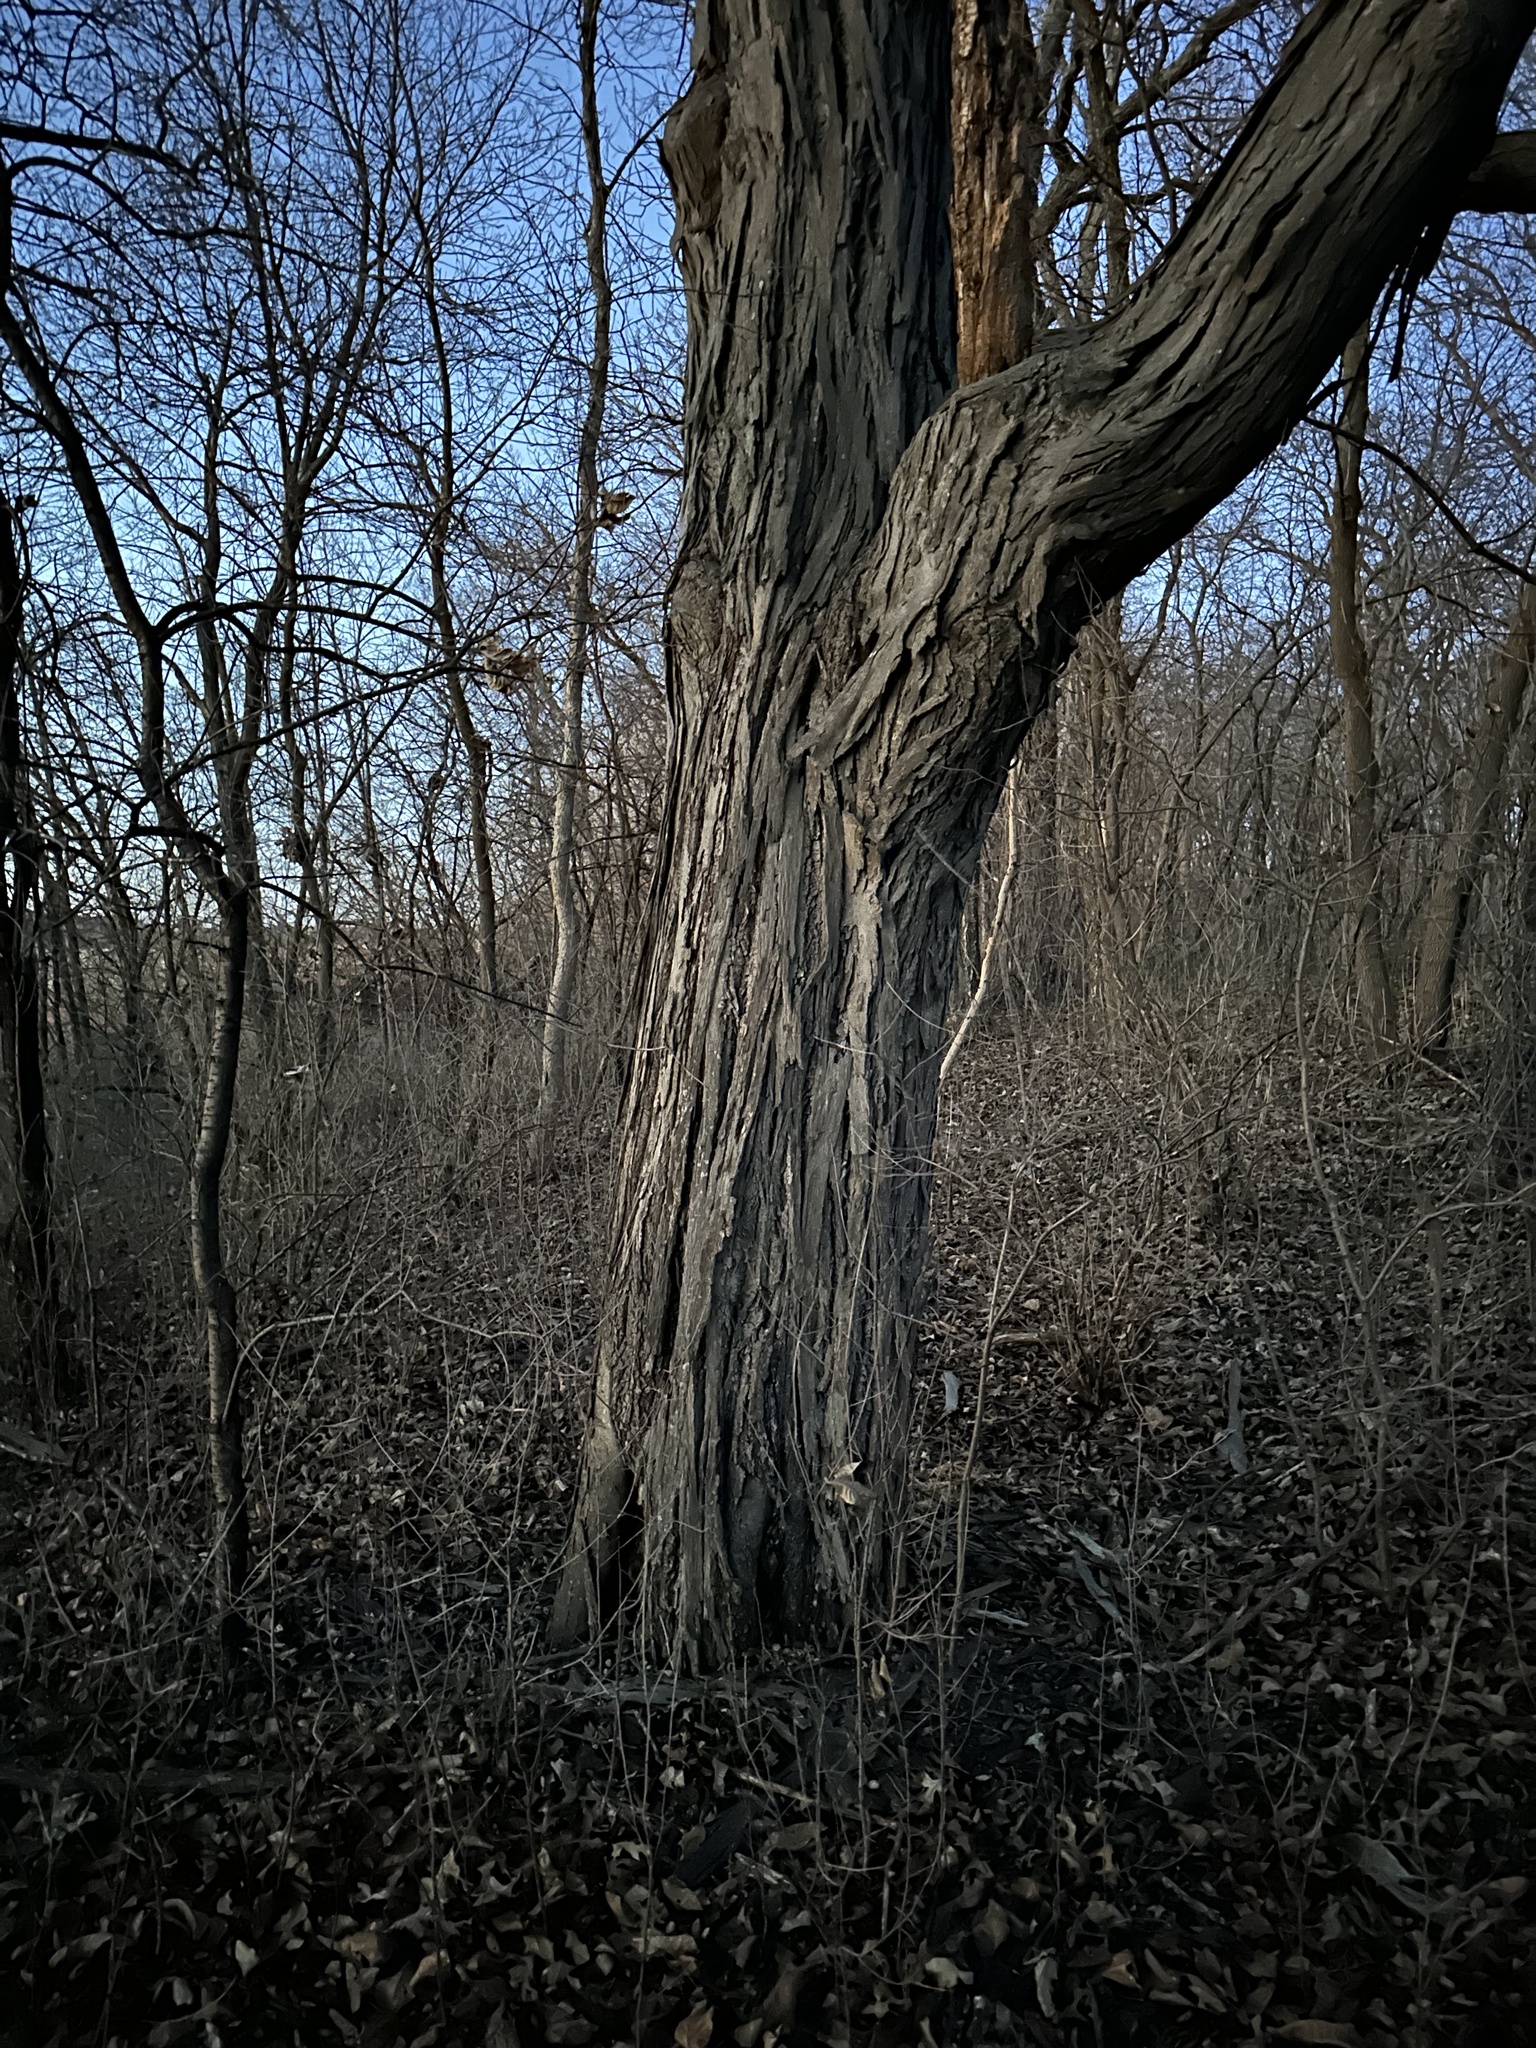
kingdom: Plantae
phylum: Tracheophyta
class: Magnoliopsida
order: Fagales
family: Juglandaceae
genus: Carya
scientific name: Carya ovata
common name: Shagbark hickory
